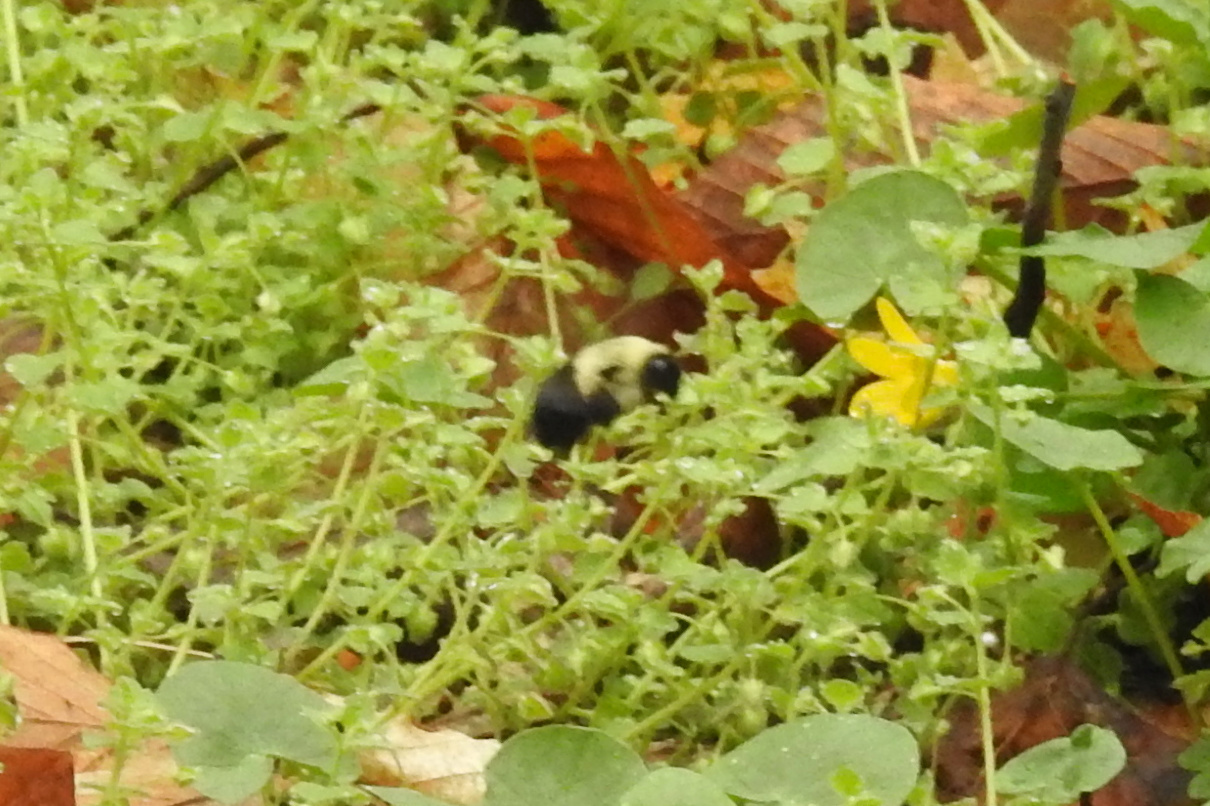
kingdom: Animalia
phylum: Arthropoda
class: Insecta
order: Hymenoptera
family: Apidae
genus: Bombus
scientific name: Bombus impatiens
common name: Common eastern bumble bee
